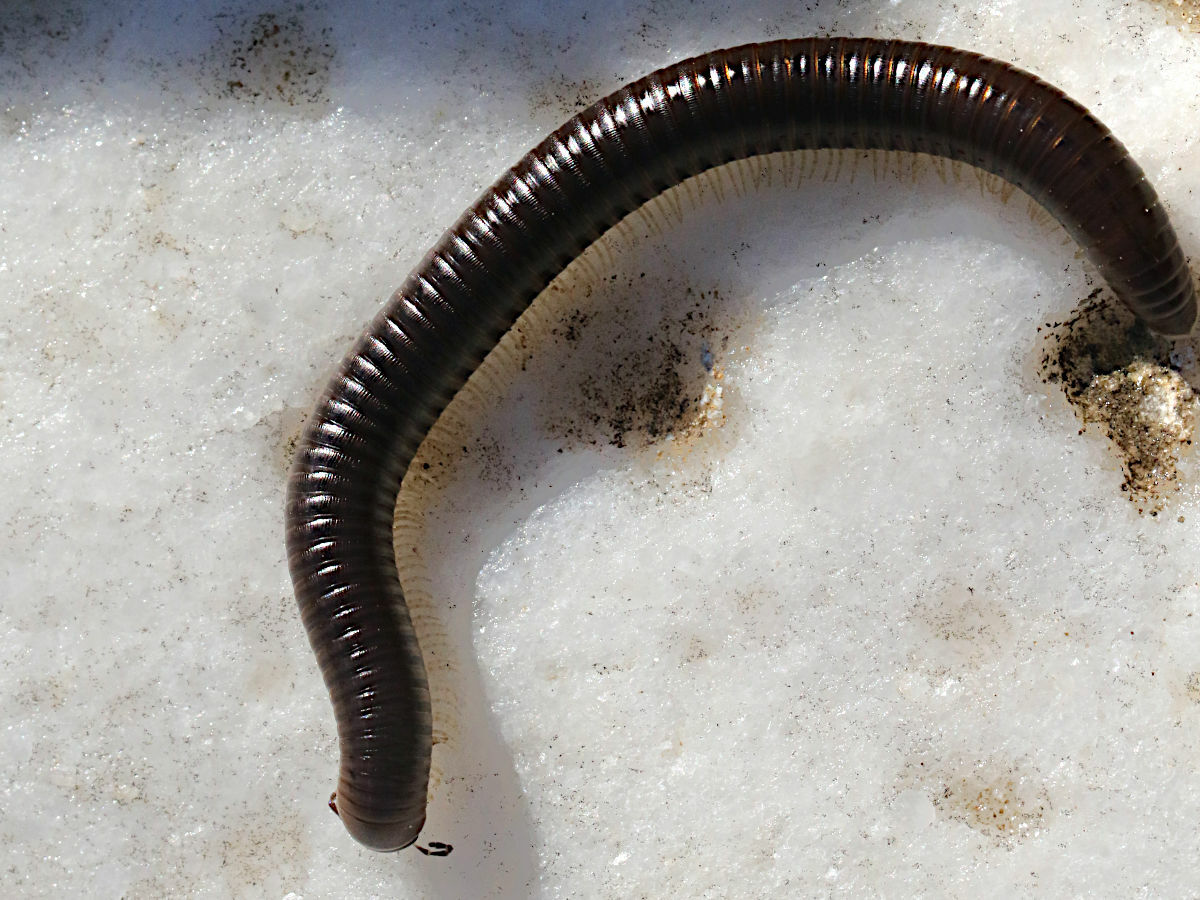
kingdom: Animalia
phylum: Arthropoda
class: Diplopoda
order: Julida
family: Julidae
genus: Pachyiulus
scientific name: Pachyiulus flavipes
